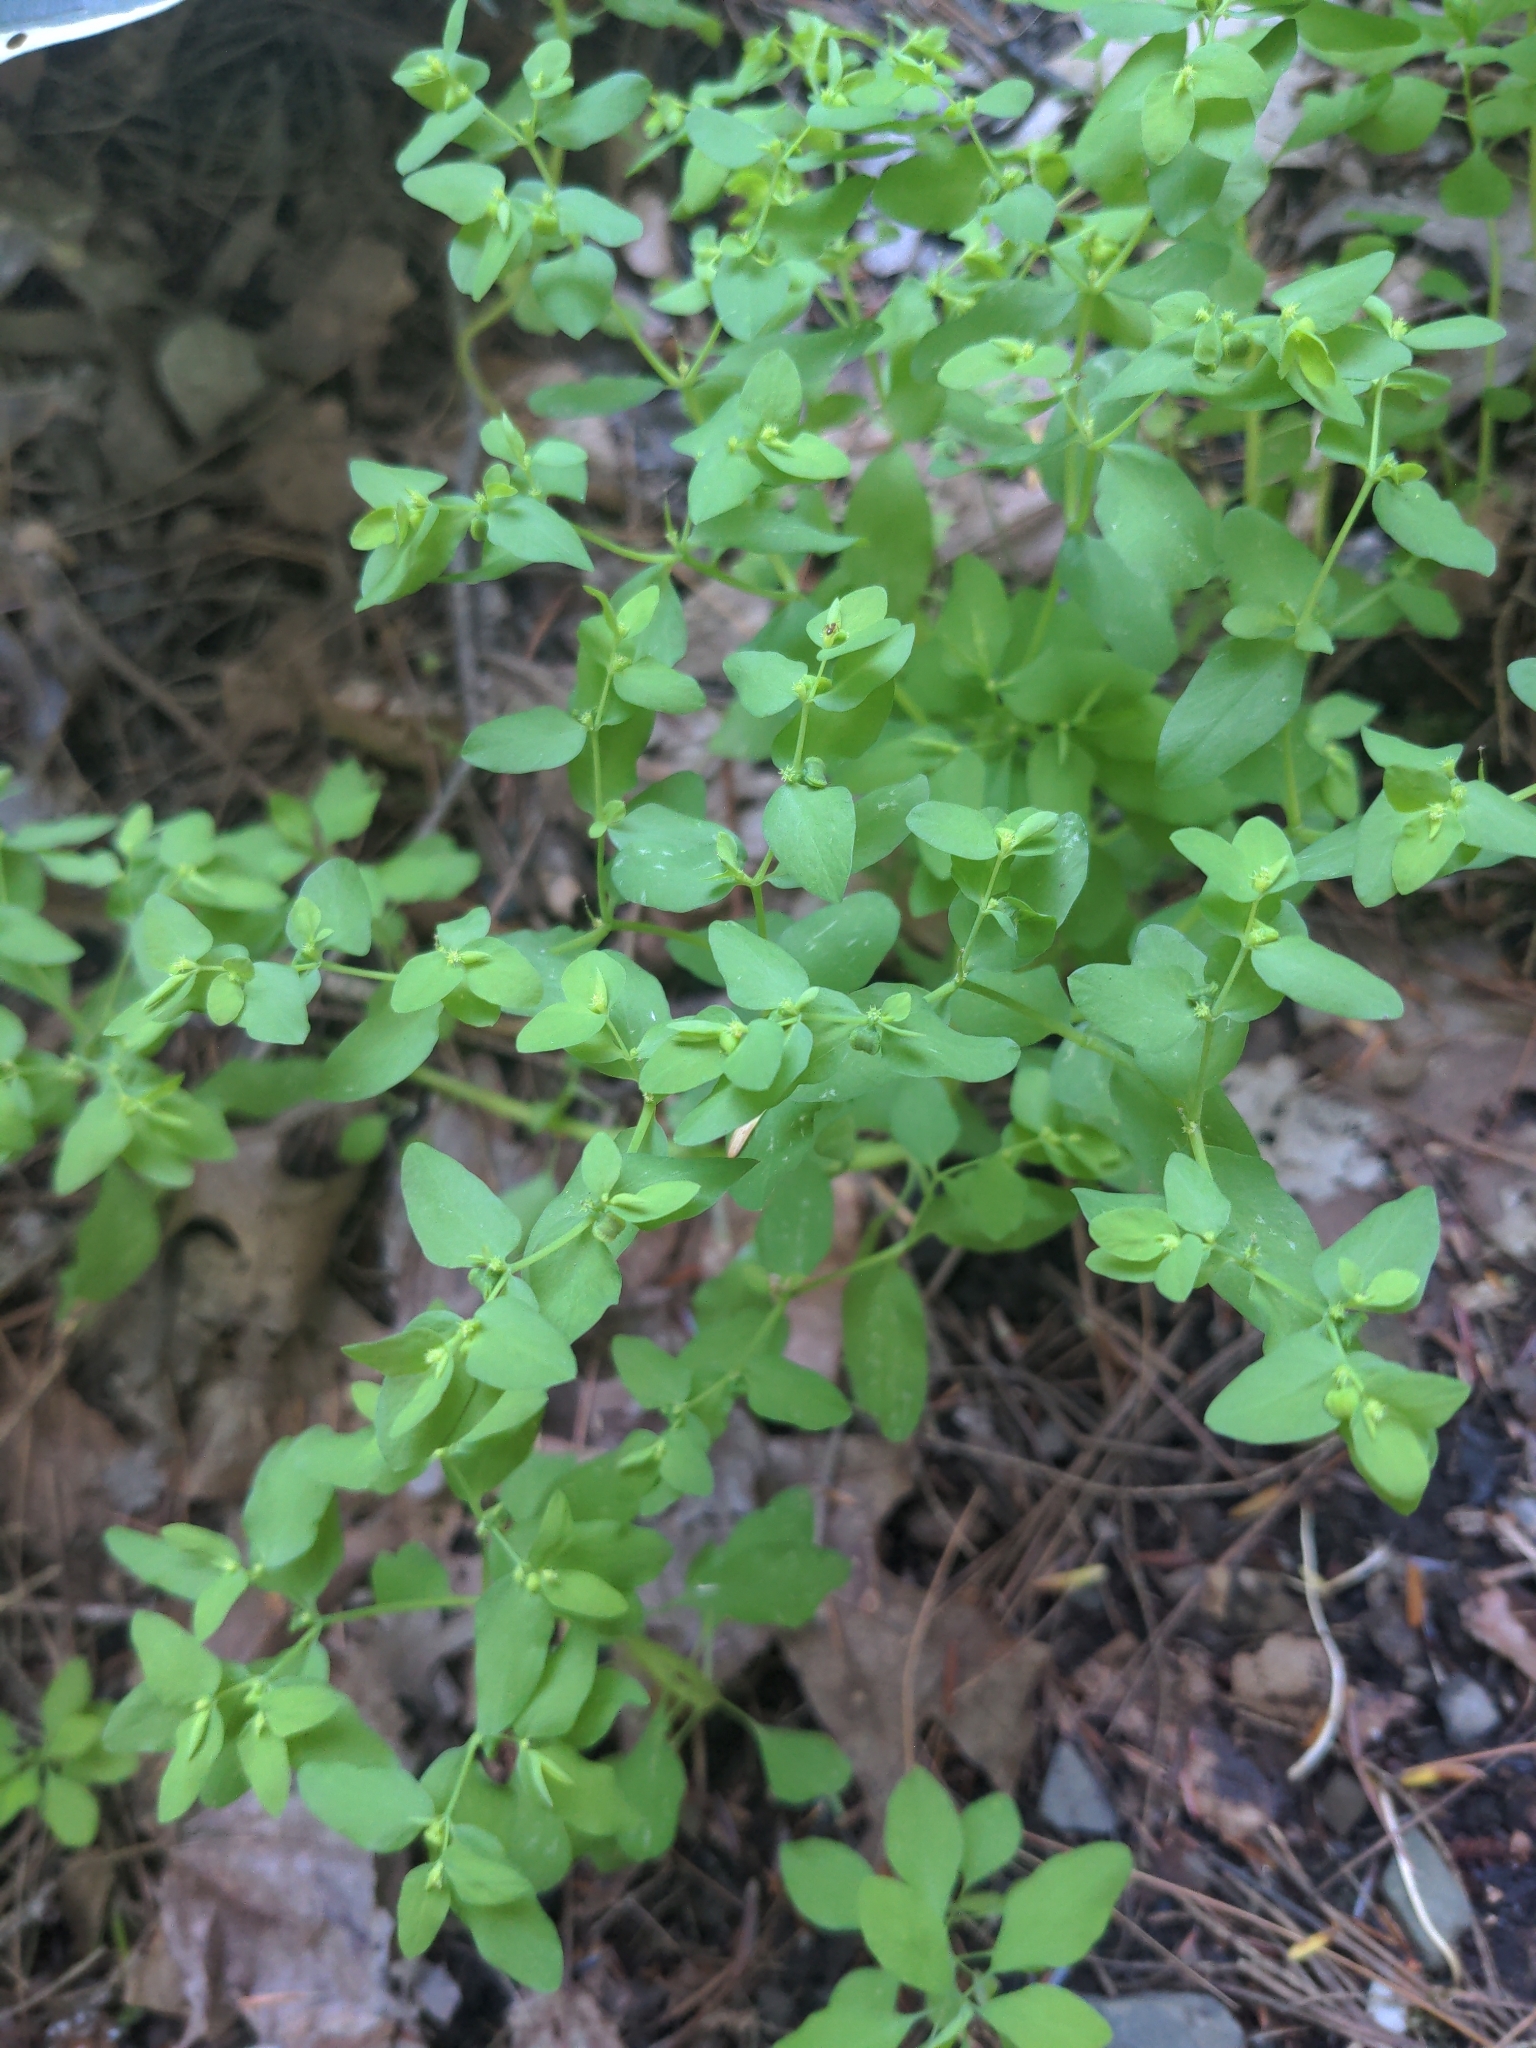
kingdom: Plantae
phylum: Tracheophyta
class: Magnoliopsida
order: Malpighiales
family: Euphorbiaceae
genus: Euphorbia
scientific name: Euphorbia peplus
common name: Petty spurge
